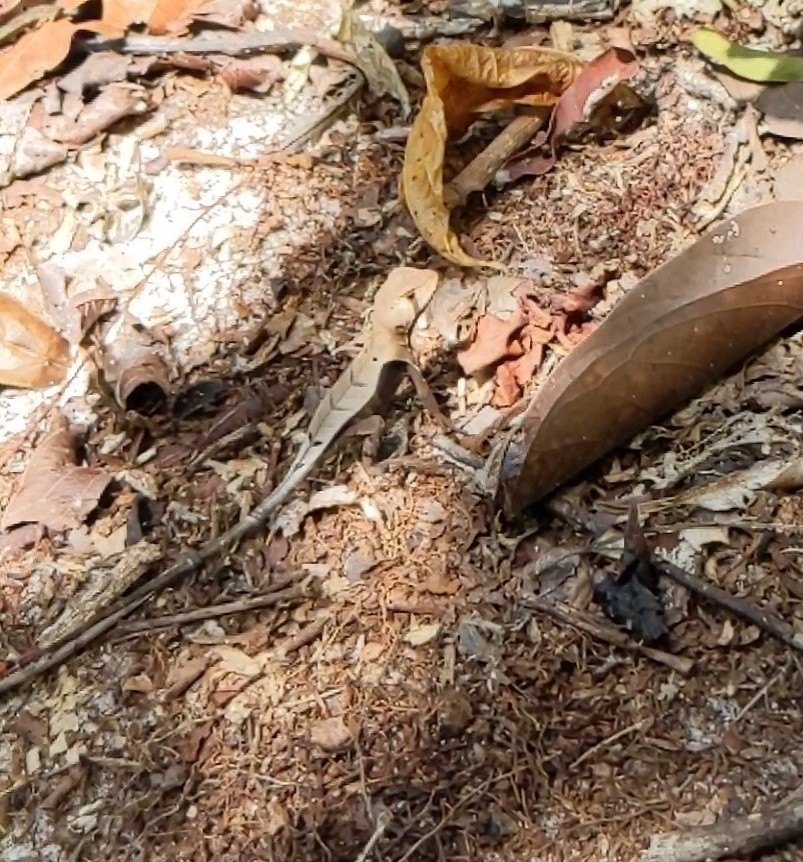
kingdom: Animalia
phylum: Chordata
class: Squamata
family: Tropiduridae
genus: Stenocercus
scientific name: Stenocercus fimbriatus
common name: Western leaf lizard
